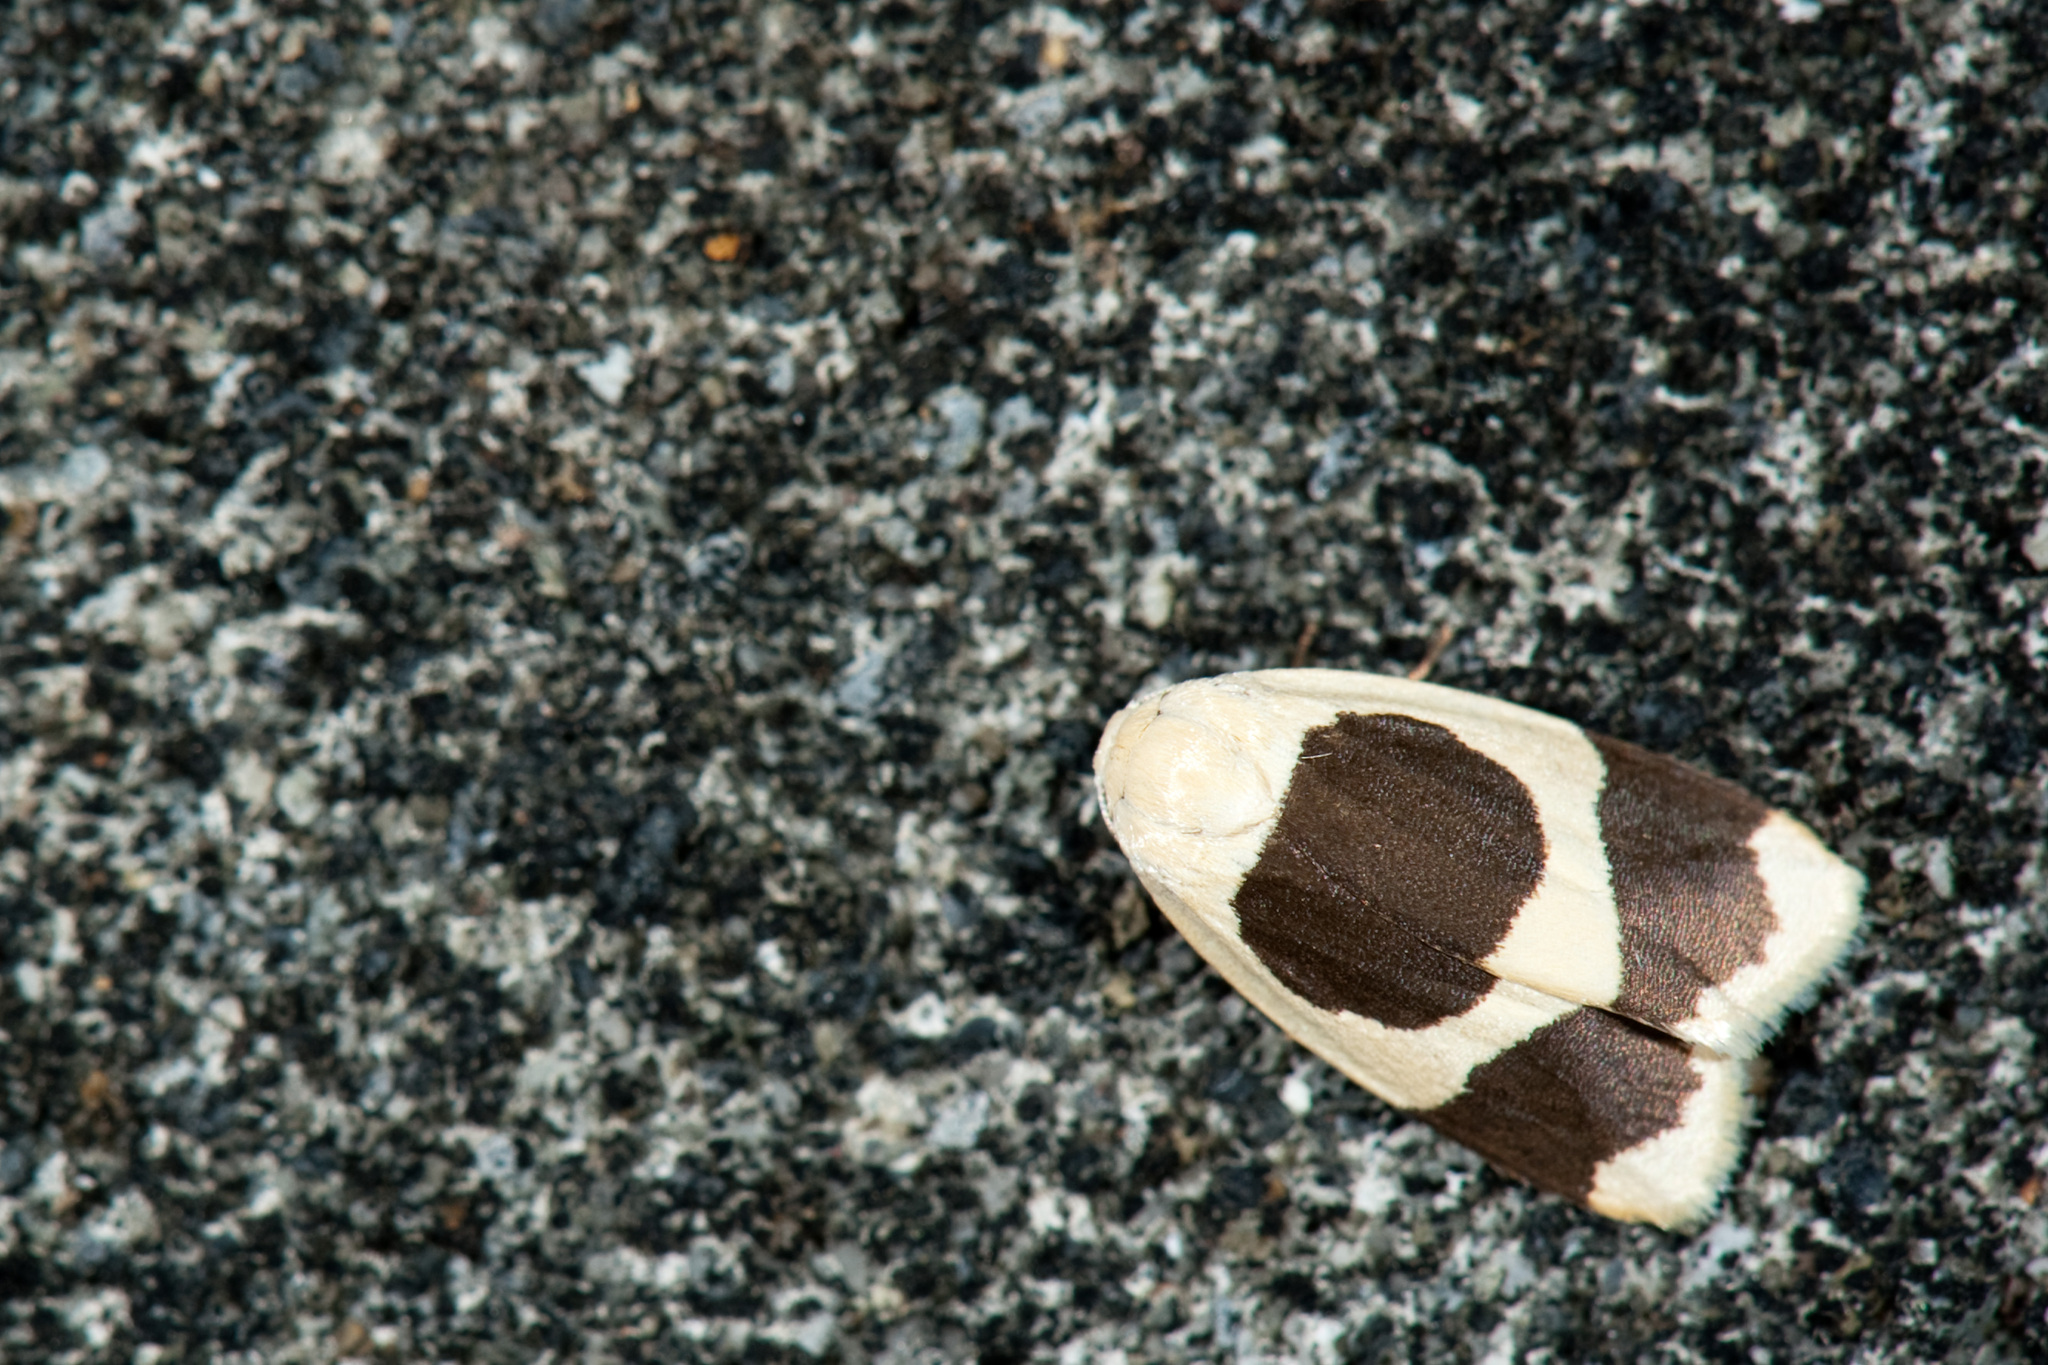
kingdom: Animalia
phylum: Arthropoda
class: Insecta
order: Lepidoptera
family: Erebidae
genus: Garudinia
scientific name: Garudinia taioana
